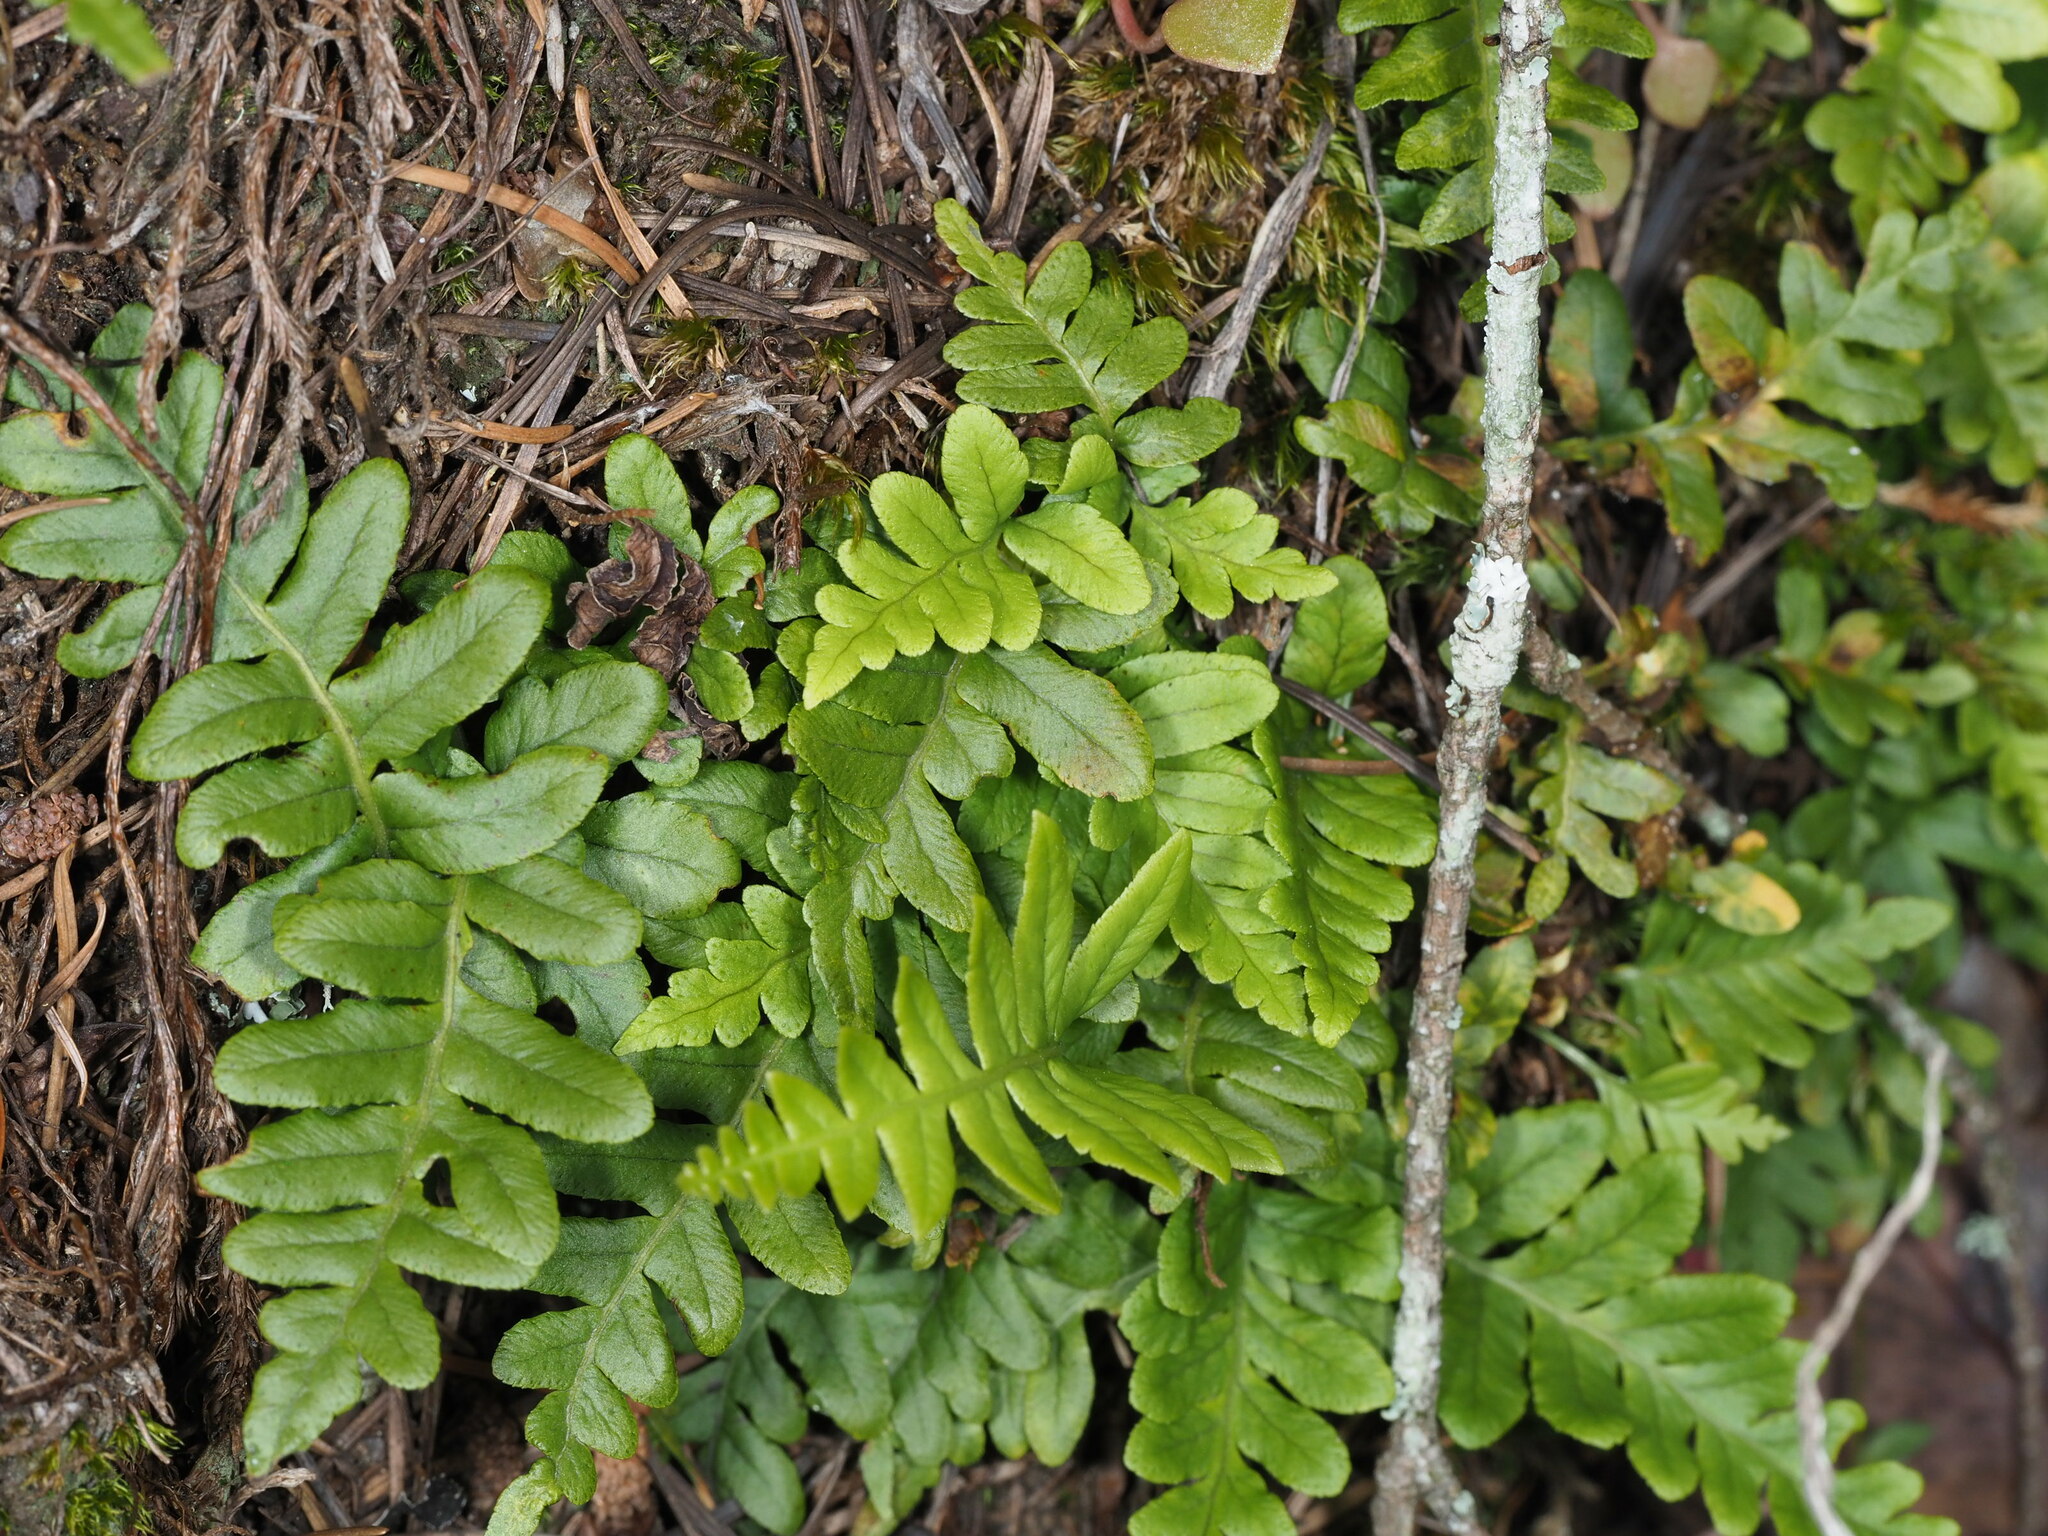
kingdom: Plantae
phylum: Tracheophyta
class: Polypodiopsida
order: Polypodiales
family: Polypodiaceae
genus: Polypodium
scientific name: Polypodium glycyrrhiza
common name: Licorice fern
